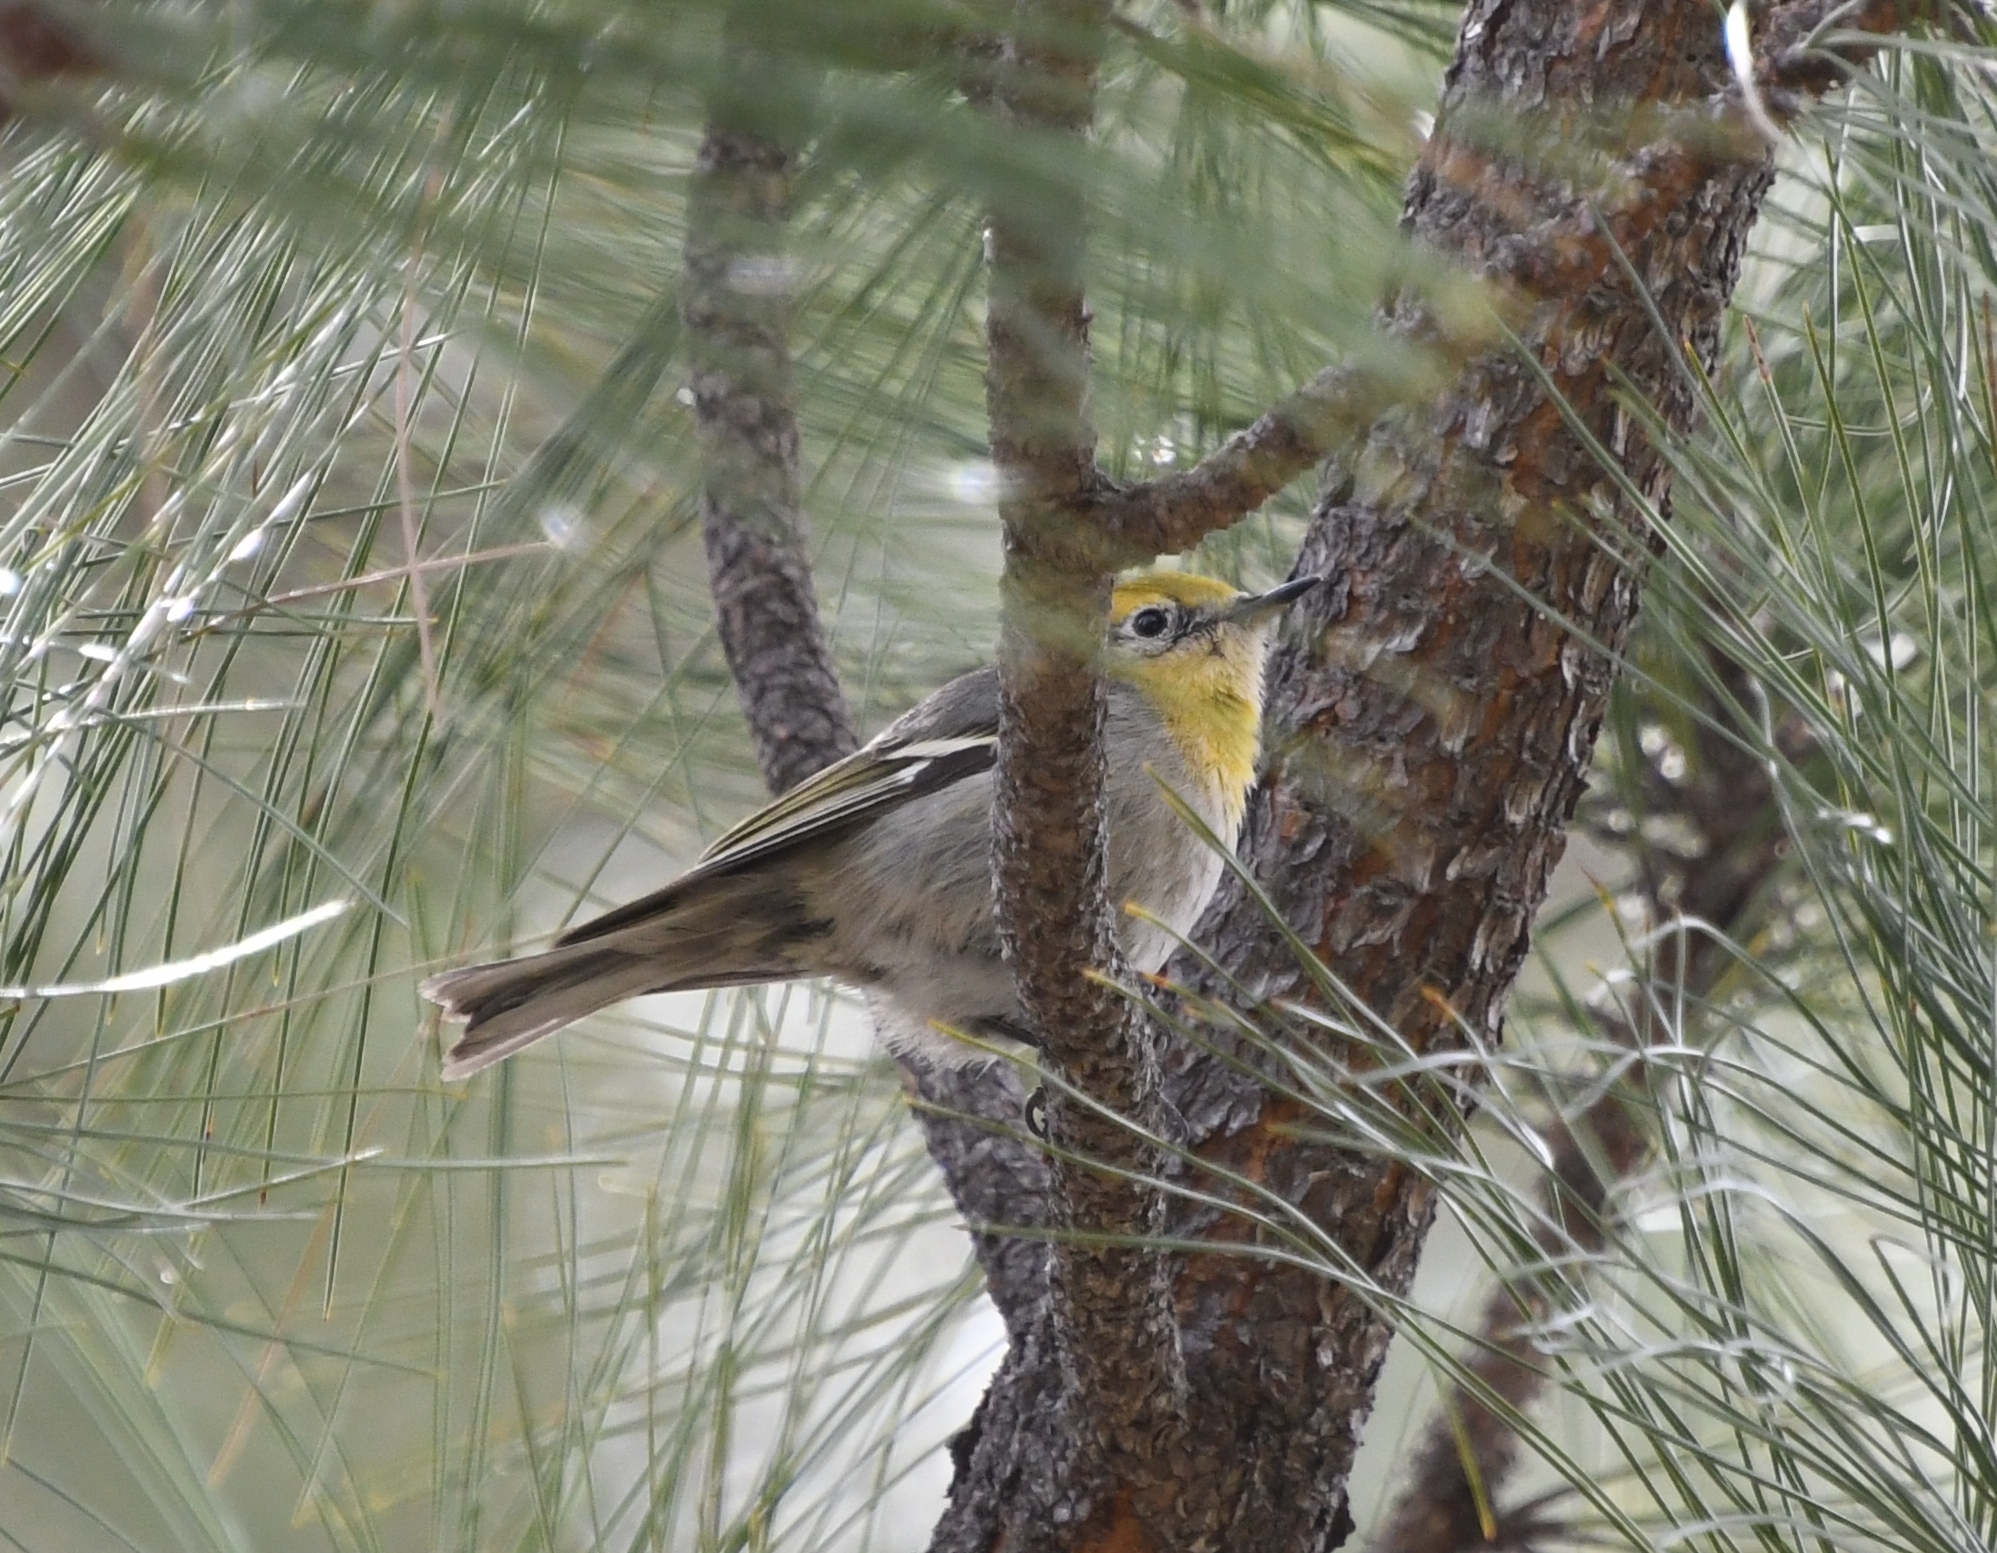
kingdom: Animalia
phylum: Chordata
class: Aves
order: Passeriformes
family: Peucedramidae
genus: Peucedramus
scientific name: Peucedramus taeniatus
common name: Olive warbler
